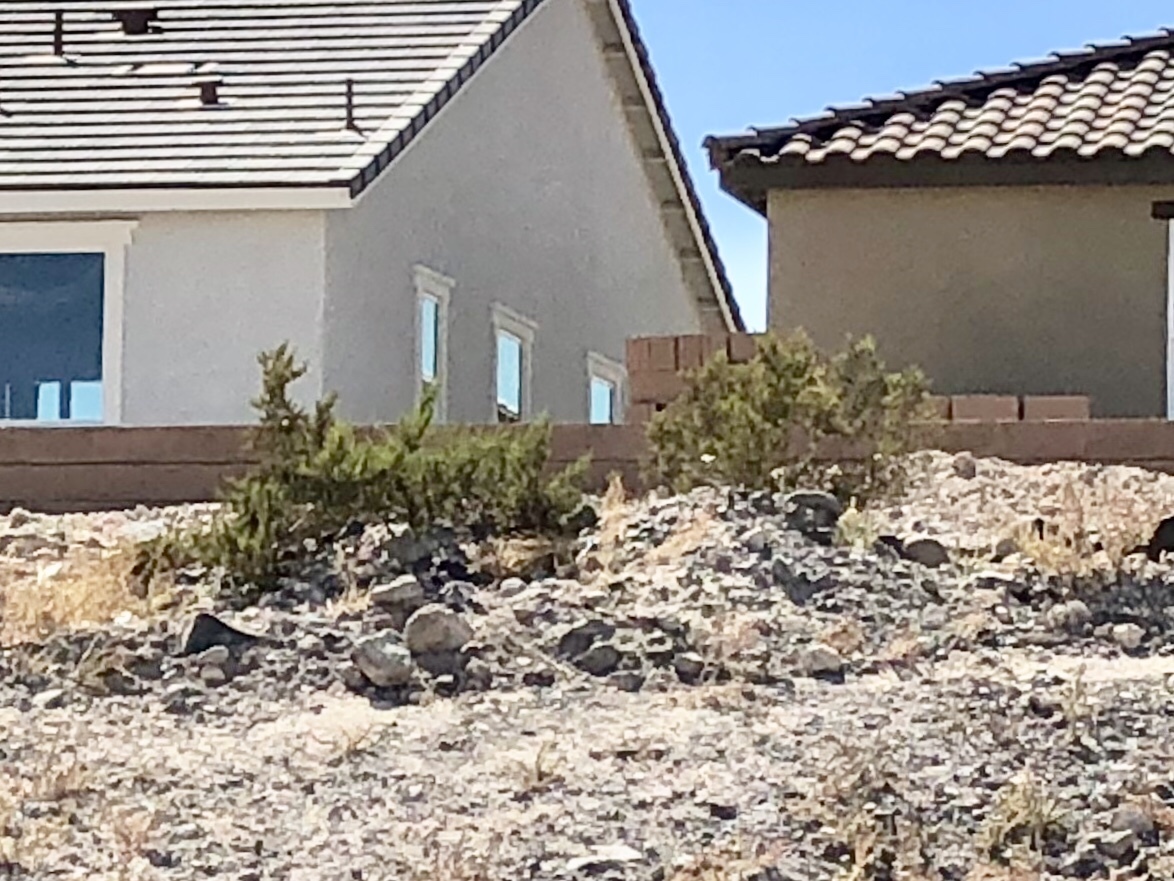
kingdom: Plantae
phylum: Tracheophyta
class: Magnoliopsida
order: Zygophyllales
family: Zygophyllaceae
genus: Larrea
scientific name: Larrea tridentata
